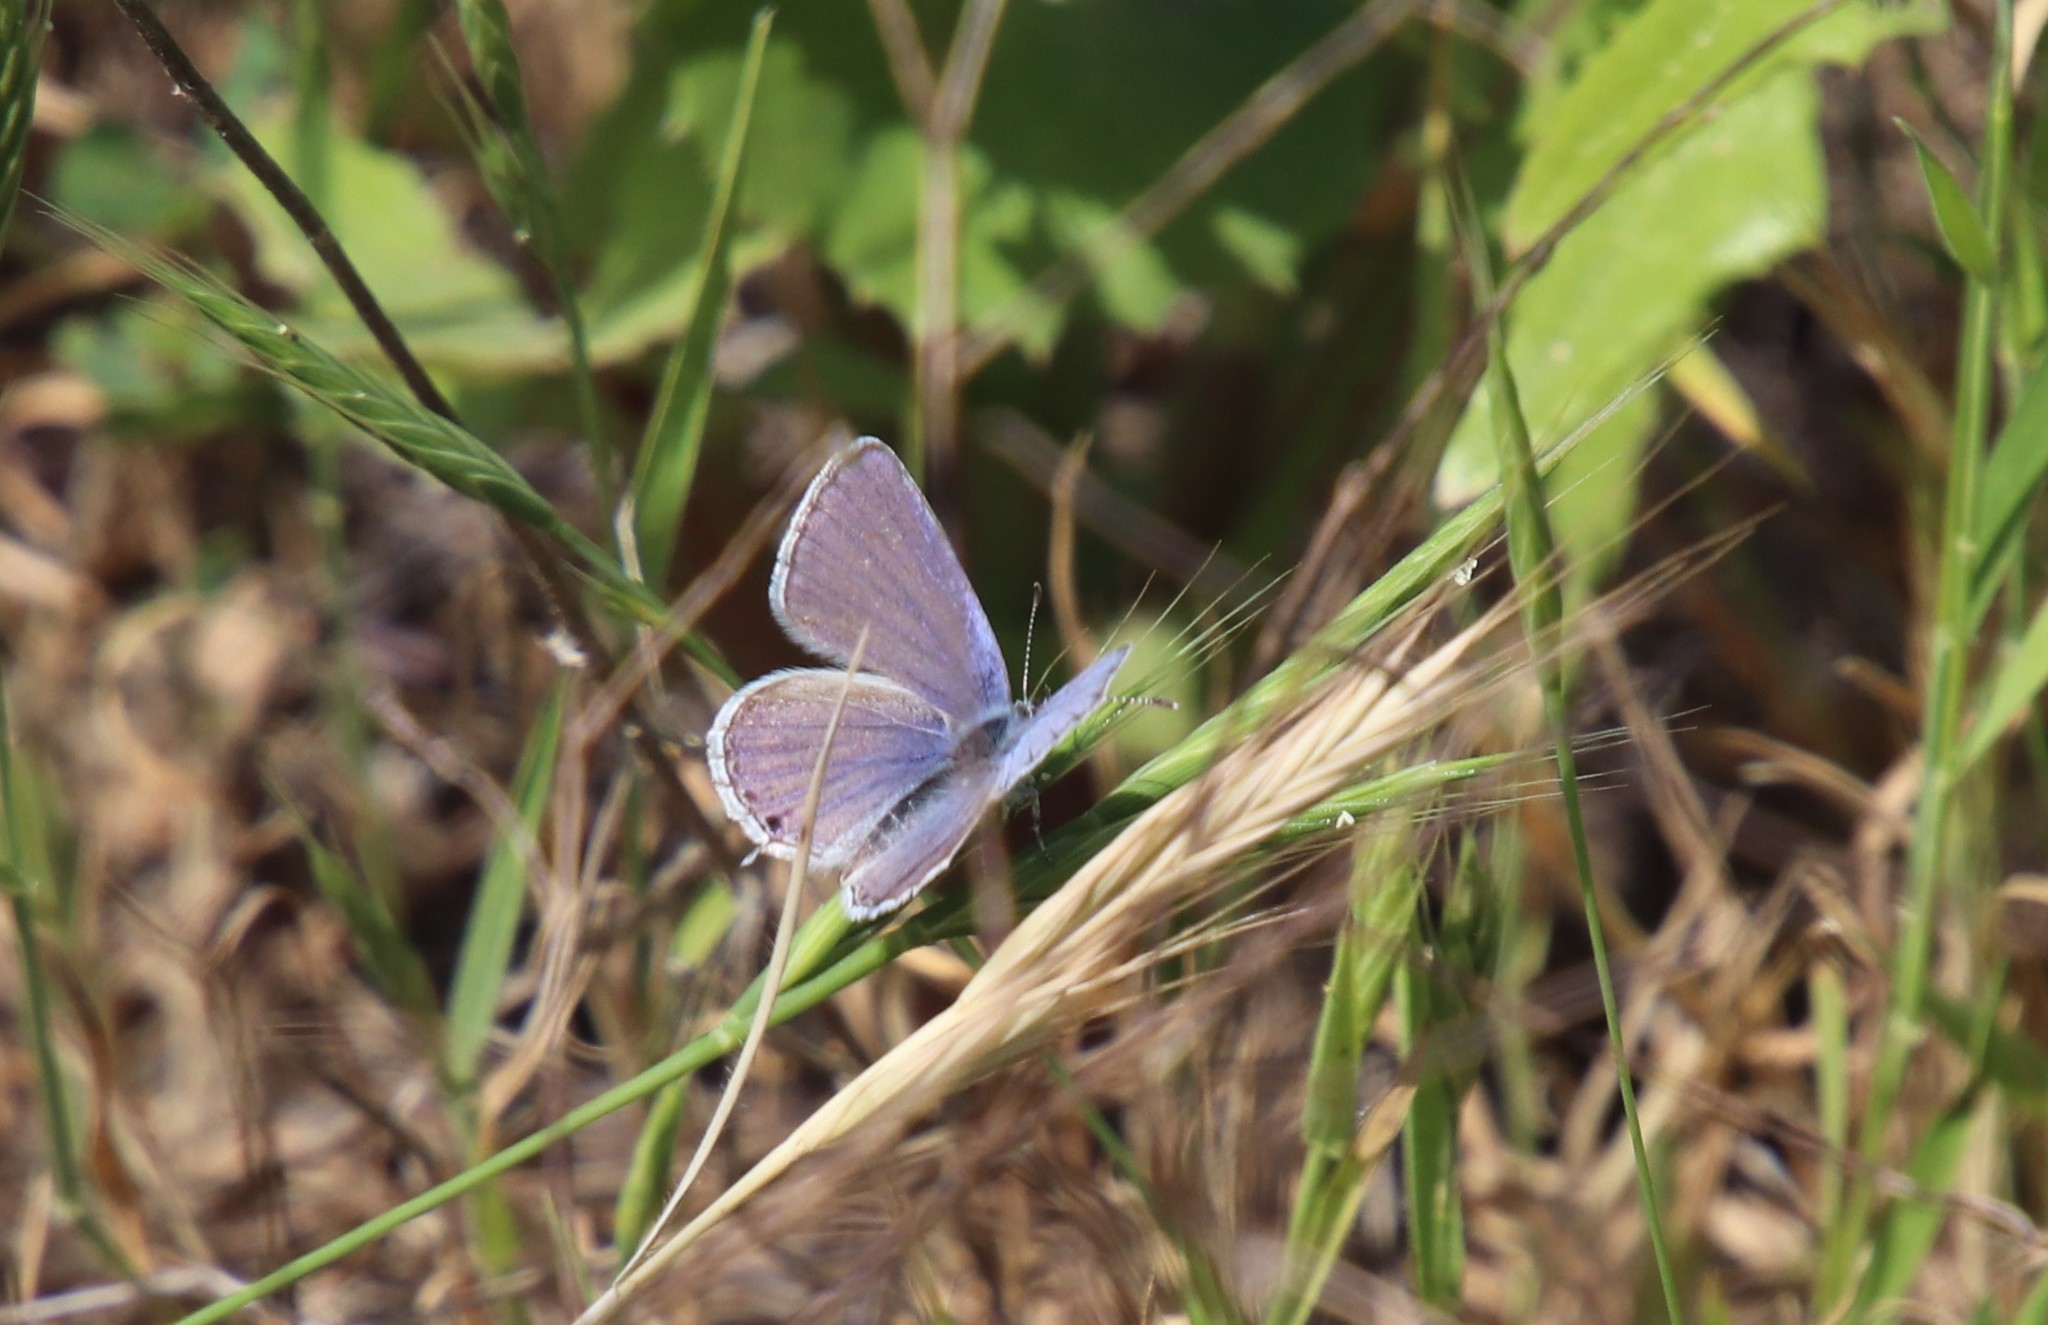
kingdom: Animalia
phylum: Arthropoda
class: Insecta
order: Lepidoptera
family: Lycaenidae
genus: Elkalyce
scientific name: Elkalyce amyntula
